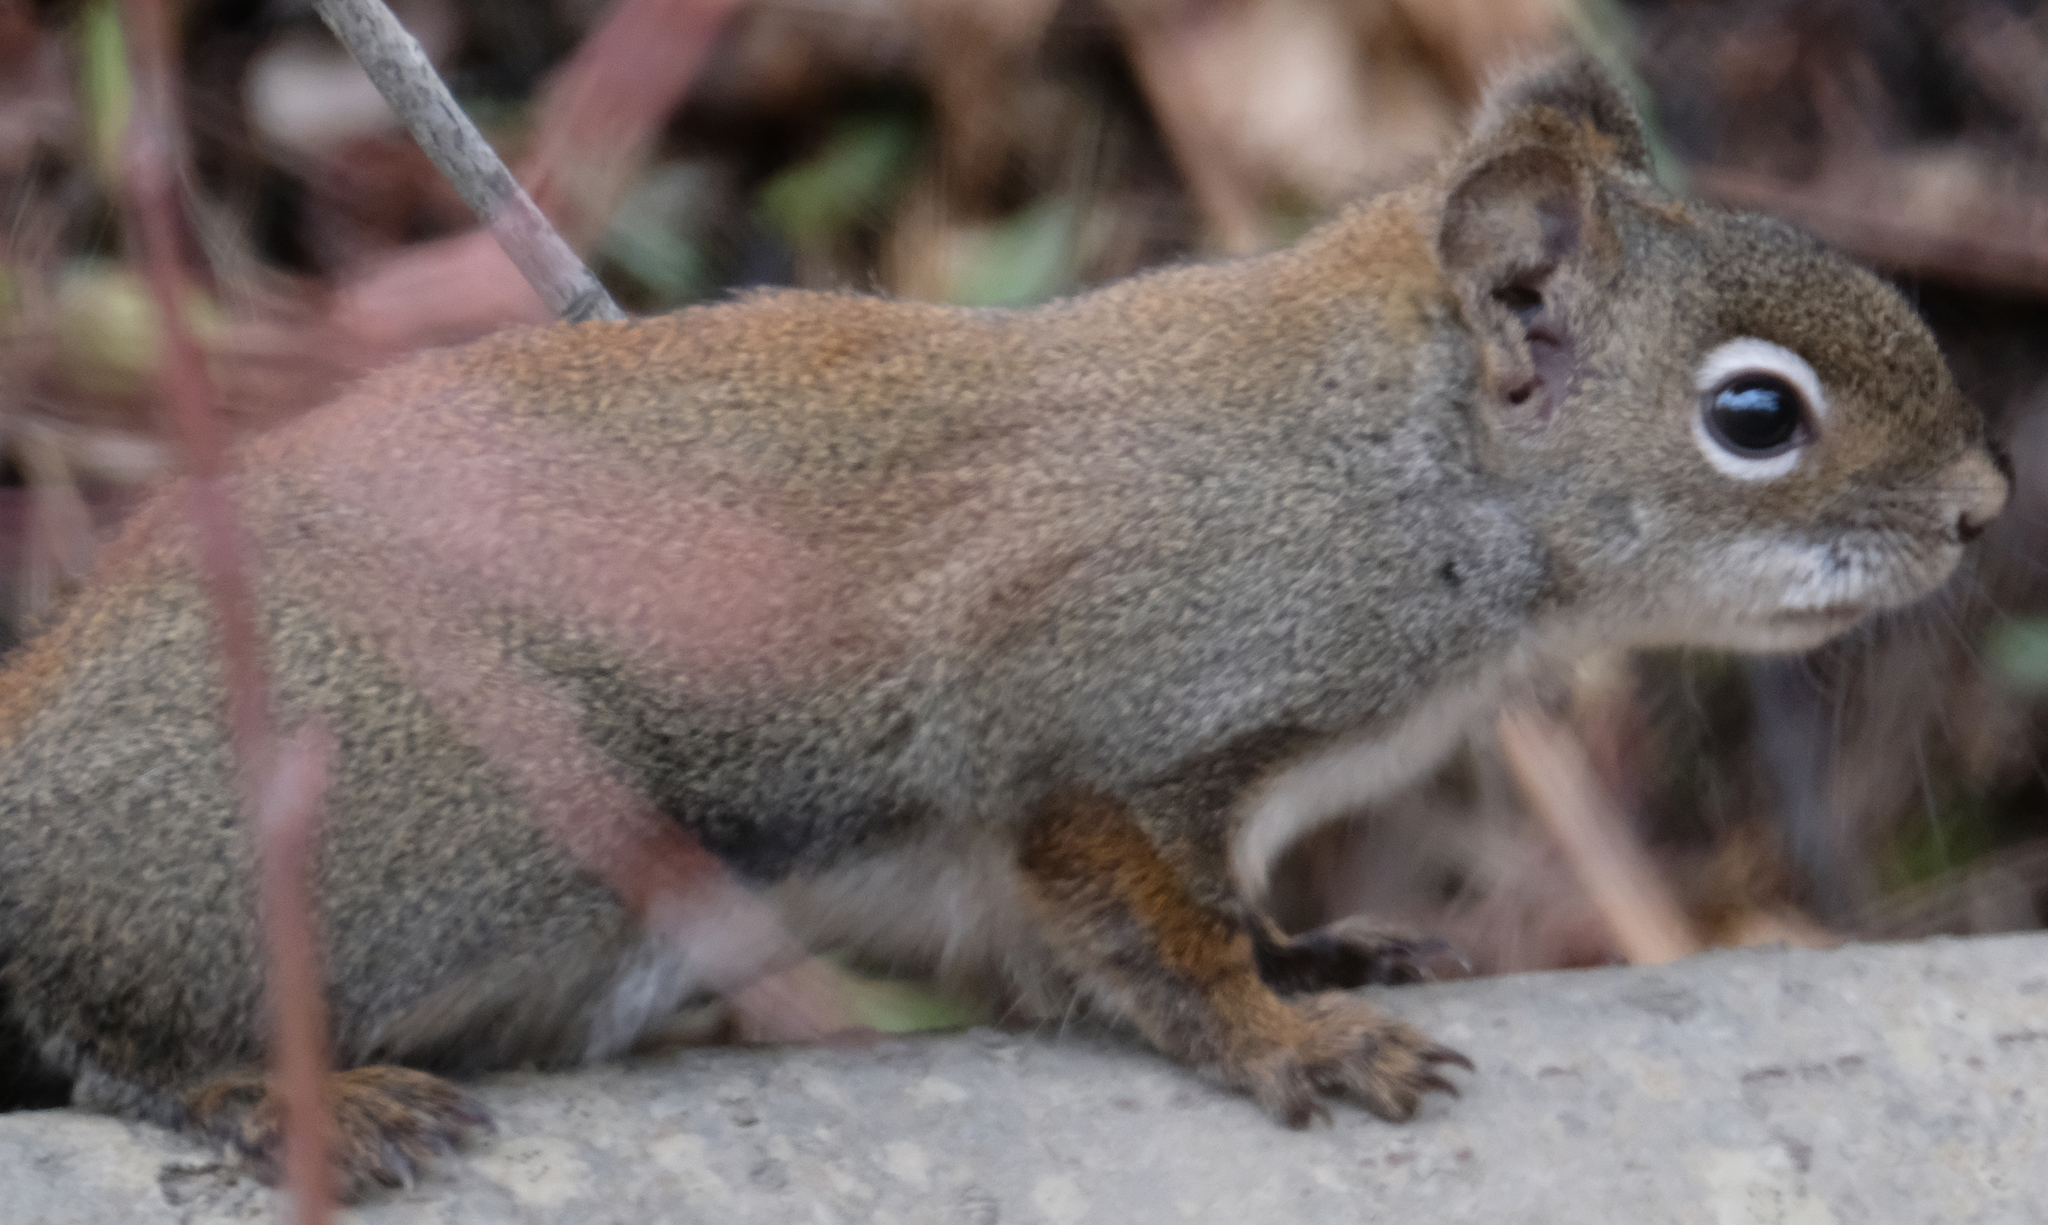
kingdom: Animalia
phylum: Chordata
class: Mammalia
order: Rodentia
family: Sciuridae
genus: Tamiasciurus
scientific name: Tamiasciurus hudsonicus
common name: Red squirrel
